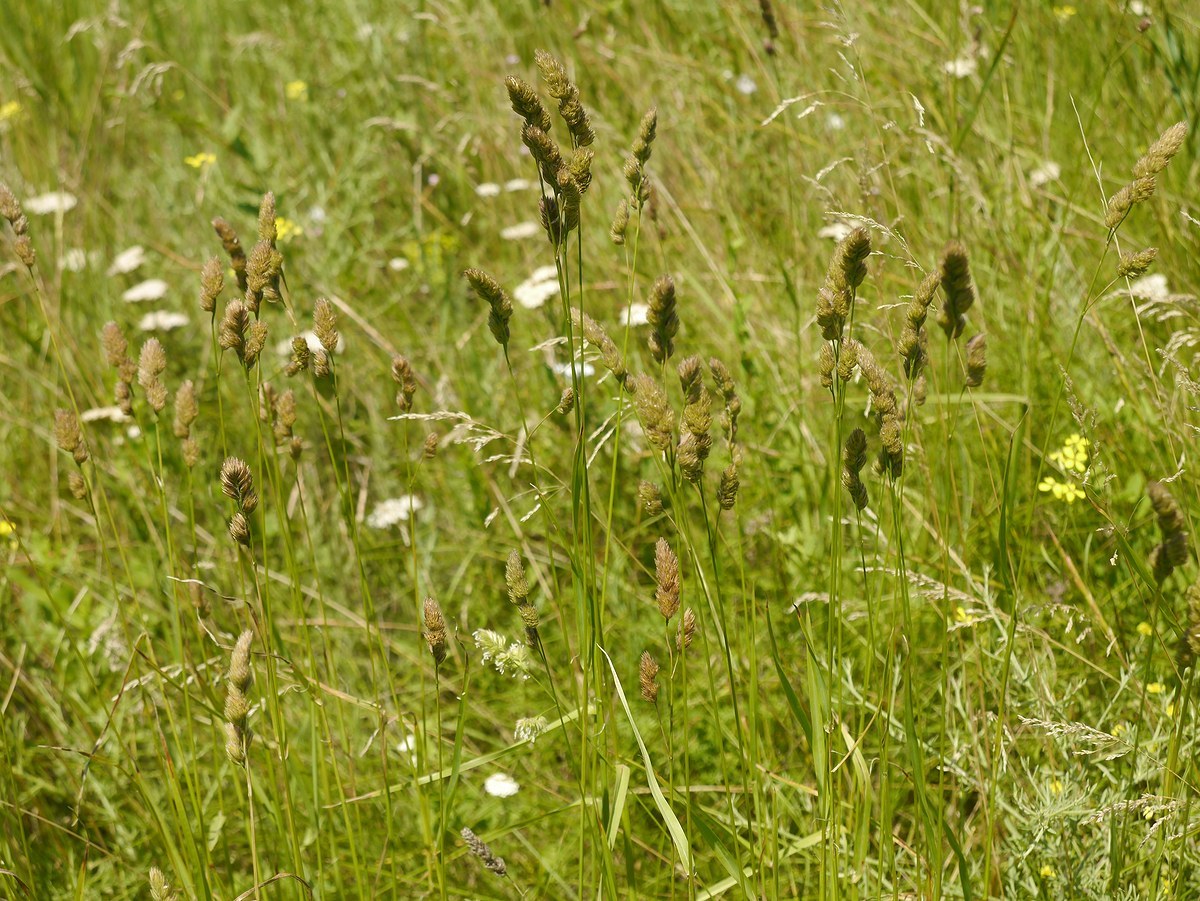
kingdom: Plantae
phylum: Tracheophyta
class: Liliopsida
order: Poales
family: Poaceae
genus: Dactylis
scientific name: Dactylis glomerata
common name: Orchardgrass
